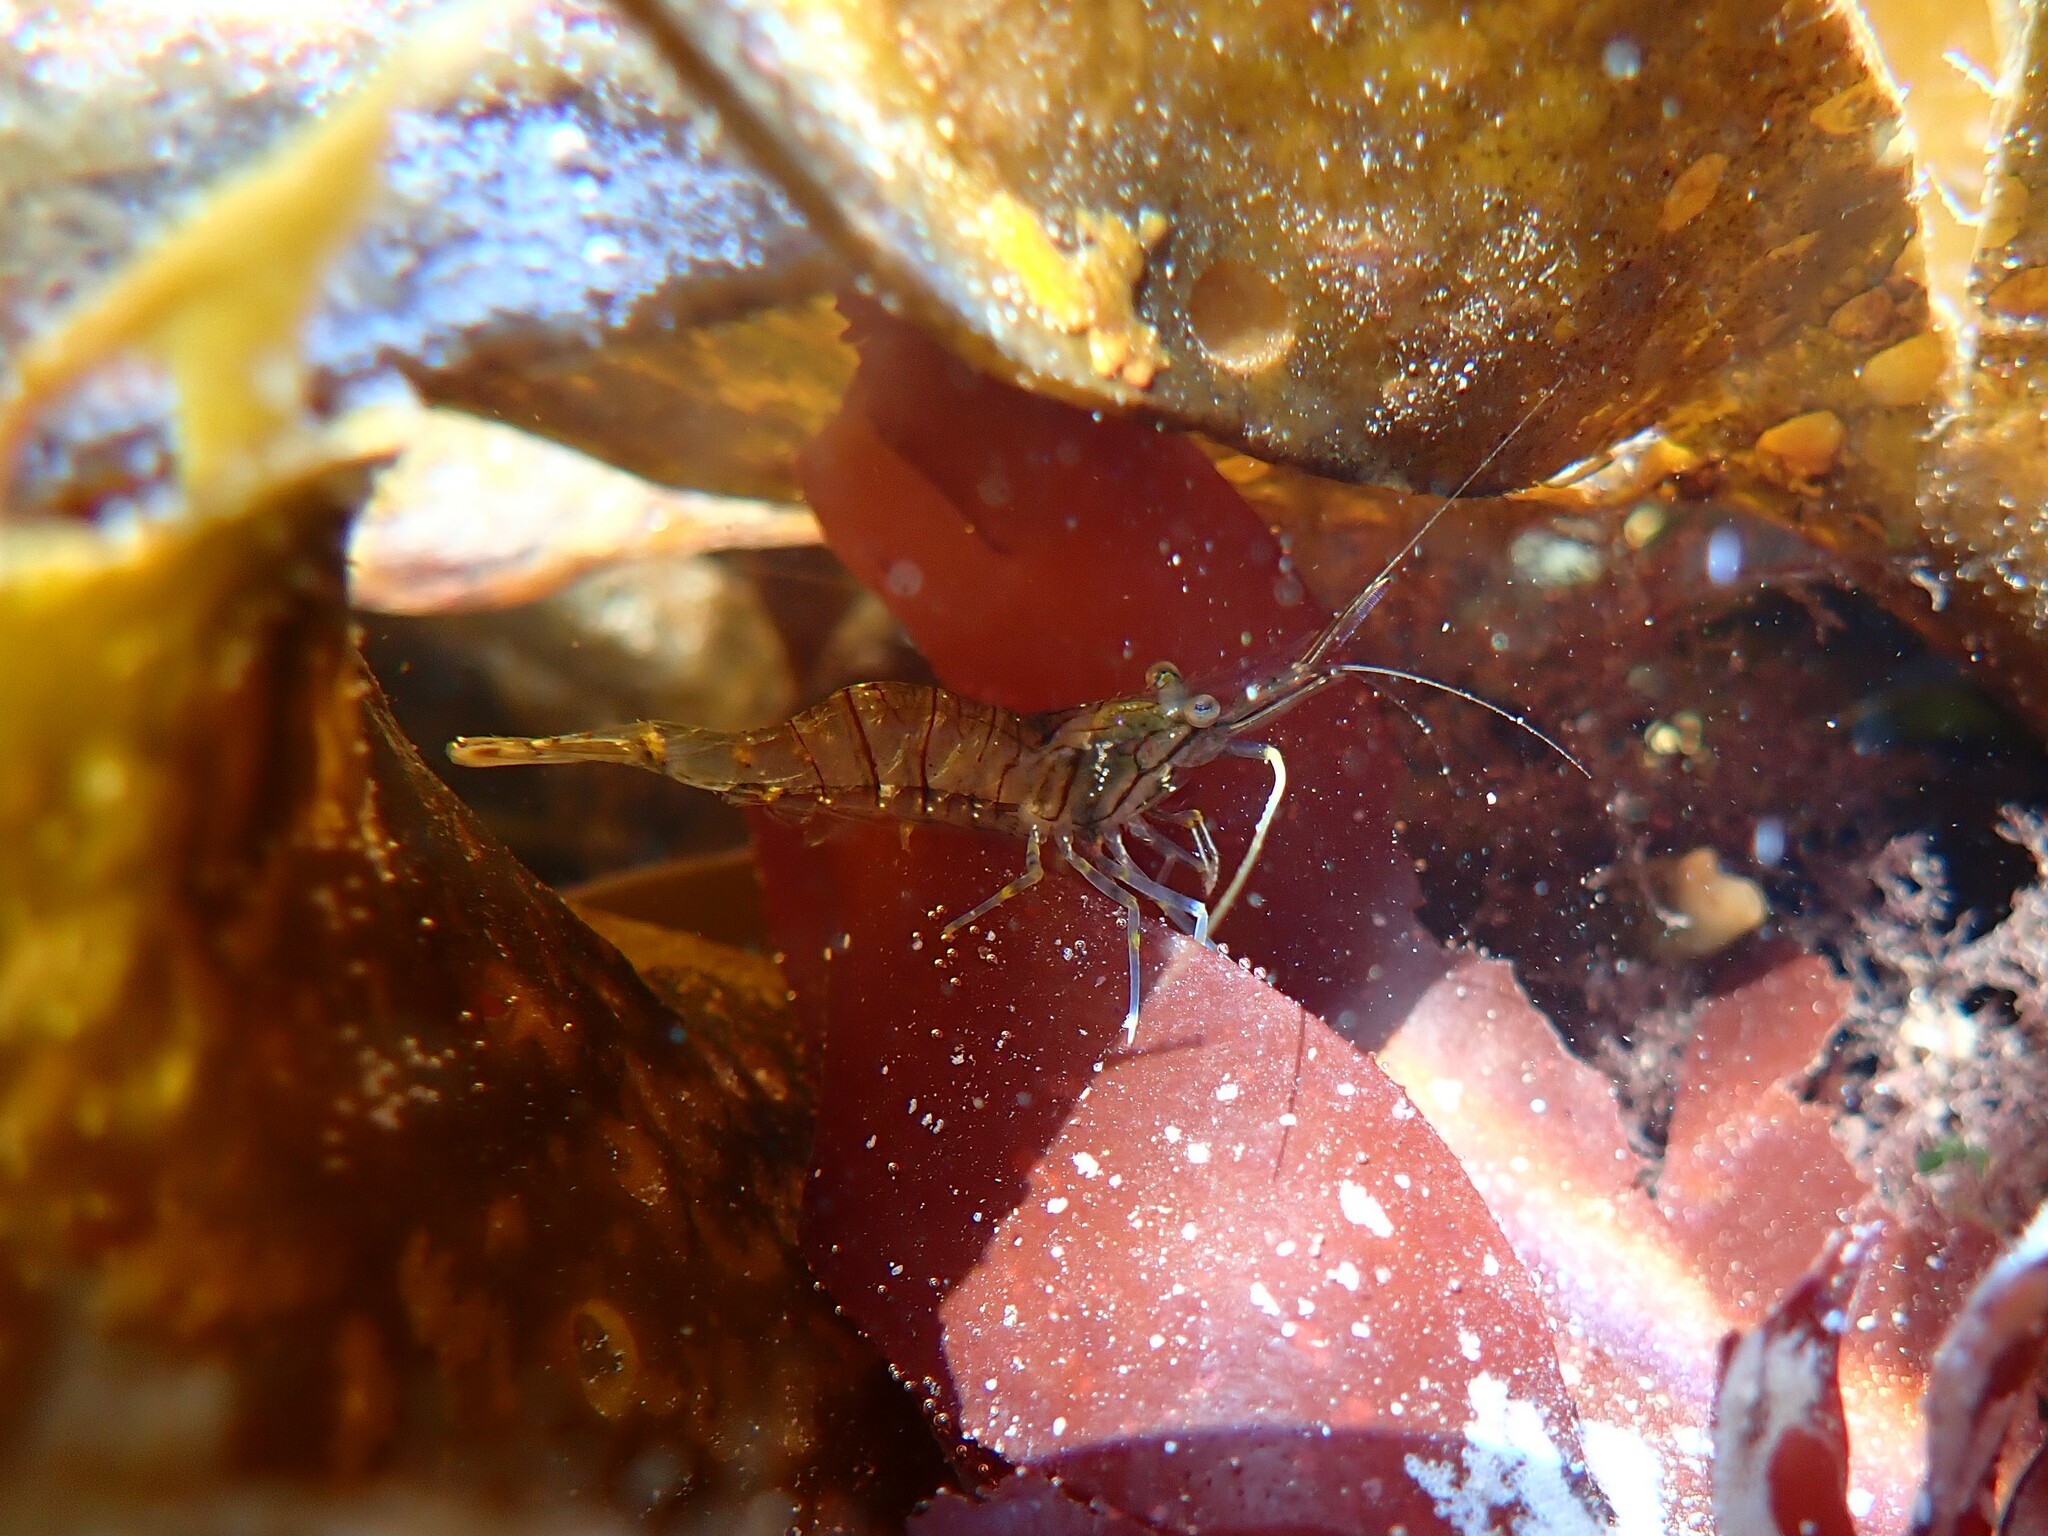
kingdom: Animalia
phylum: Arthropoda
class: Malacostraca
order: Decapoda
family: Palaemonidae
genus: Palaemon
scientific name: Palaemon elegans
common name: Grass prawm
